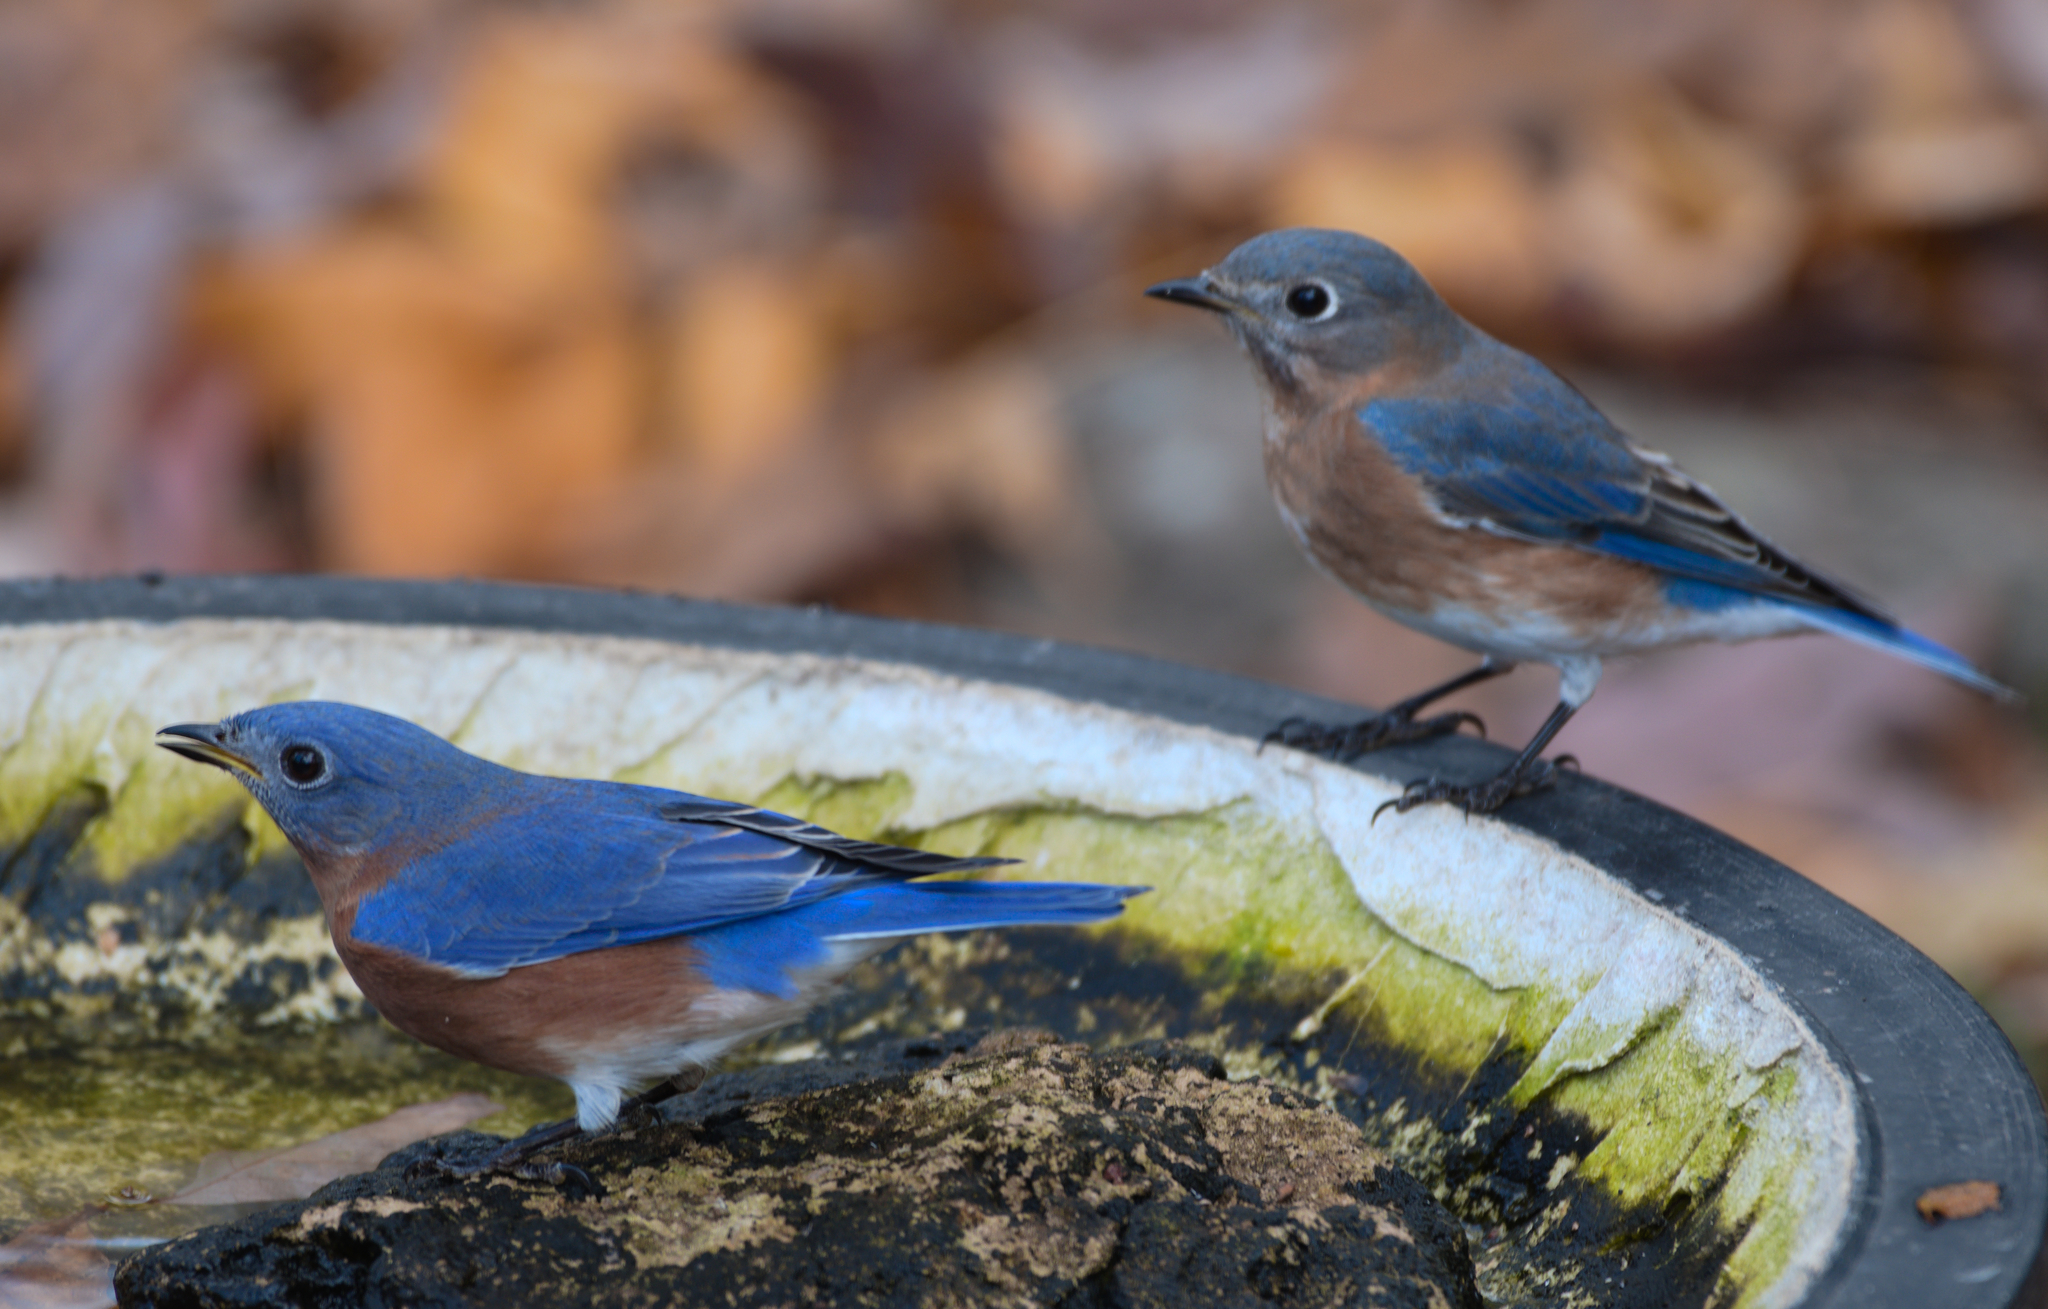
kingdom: Animalia
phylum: Chordata
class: Aves
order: Passeriformes
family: Turdidae
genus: Sialia
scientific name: Sialia sialis
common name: Eastern bluebird
